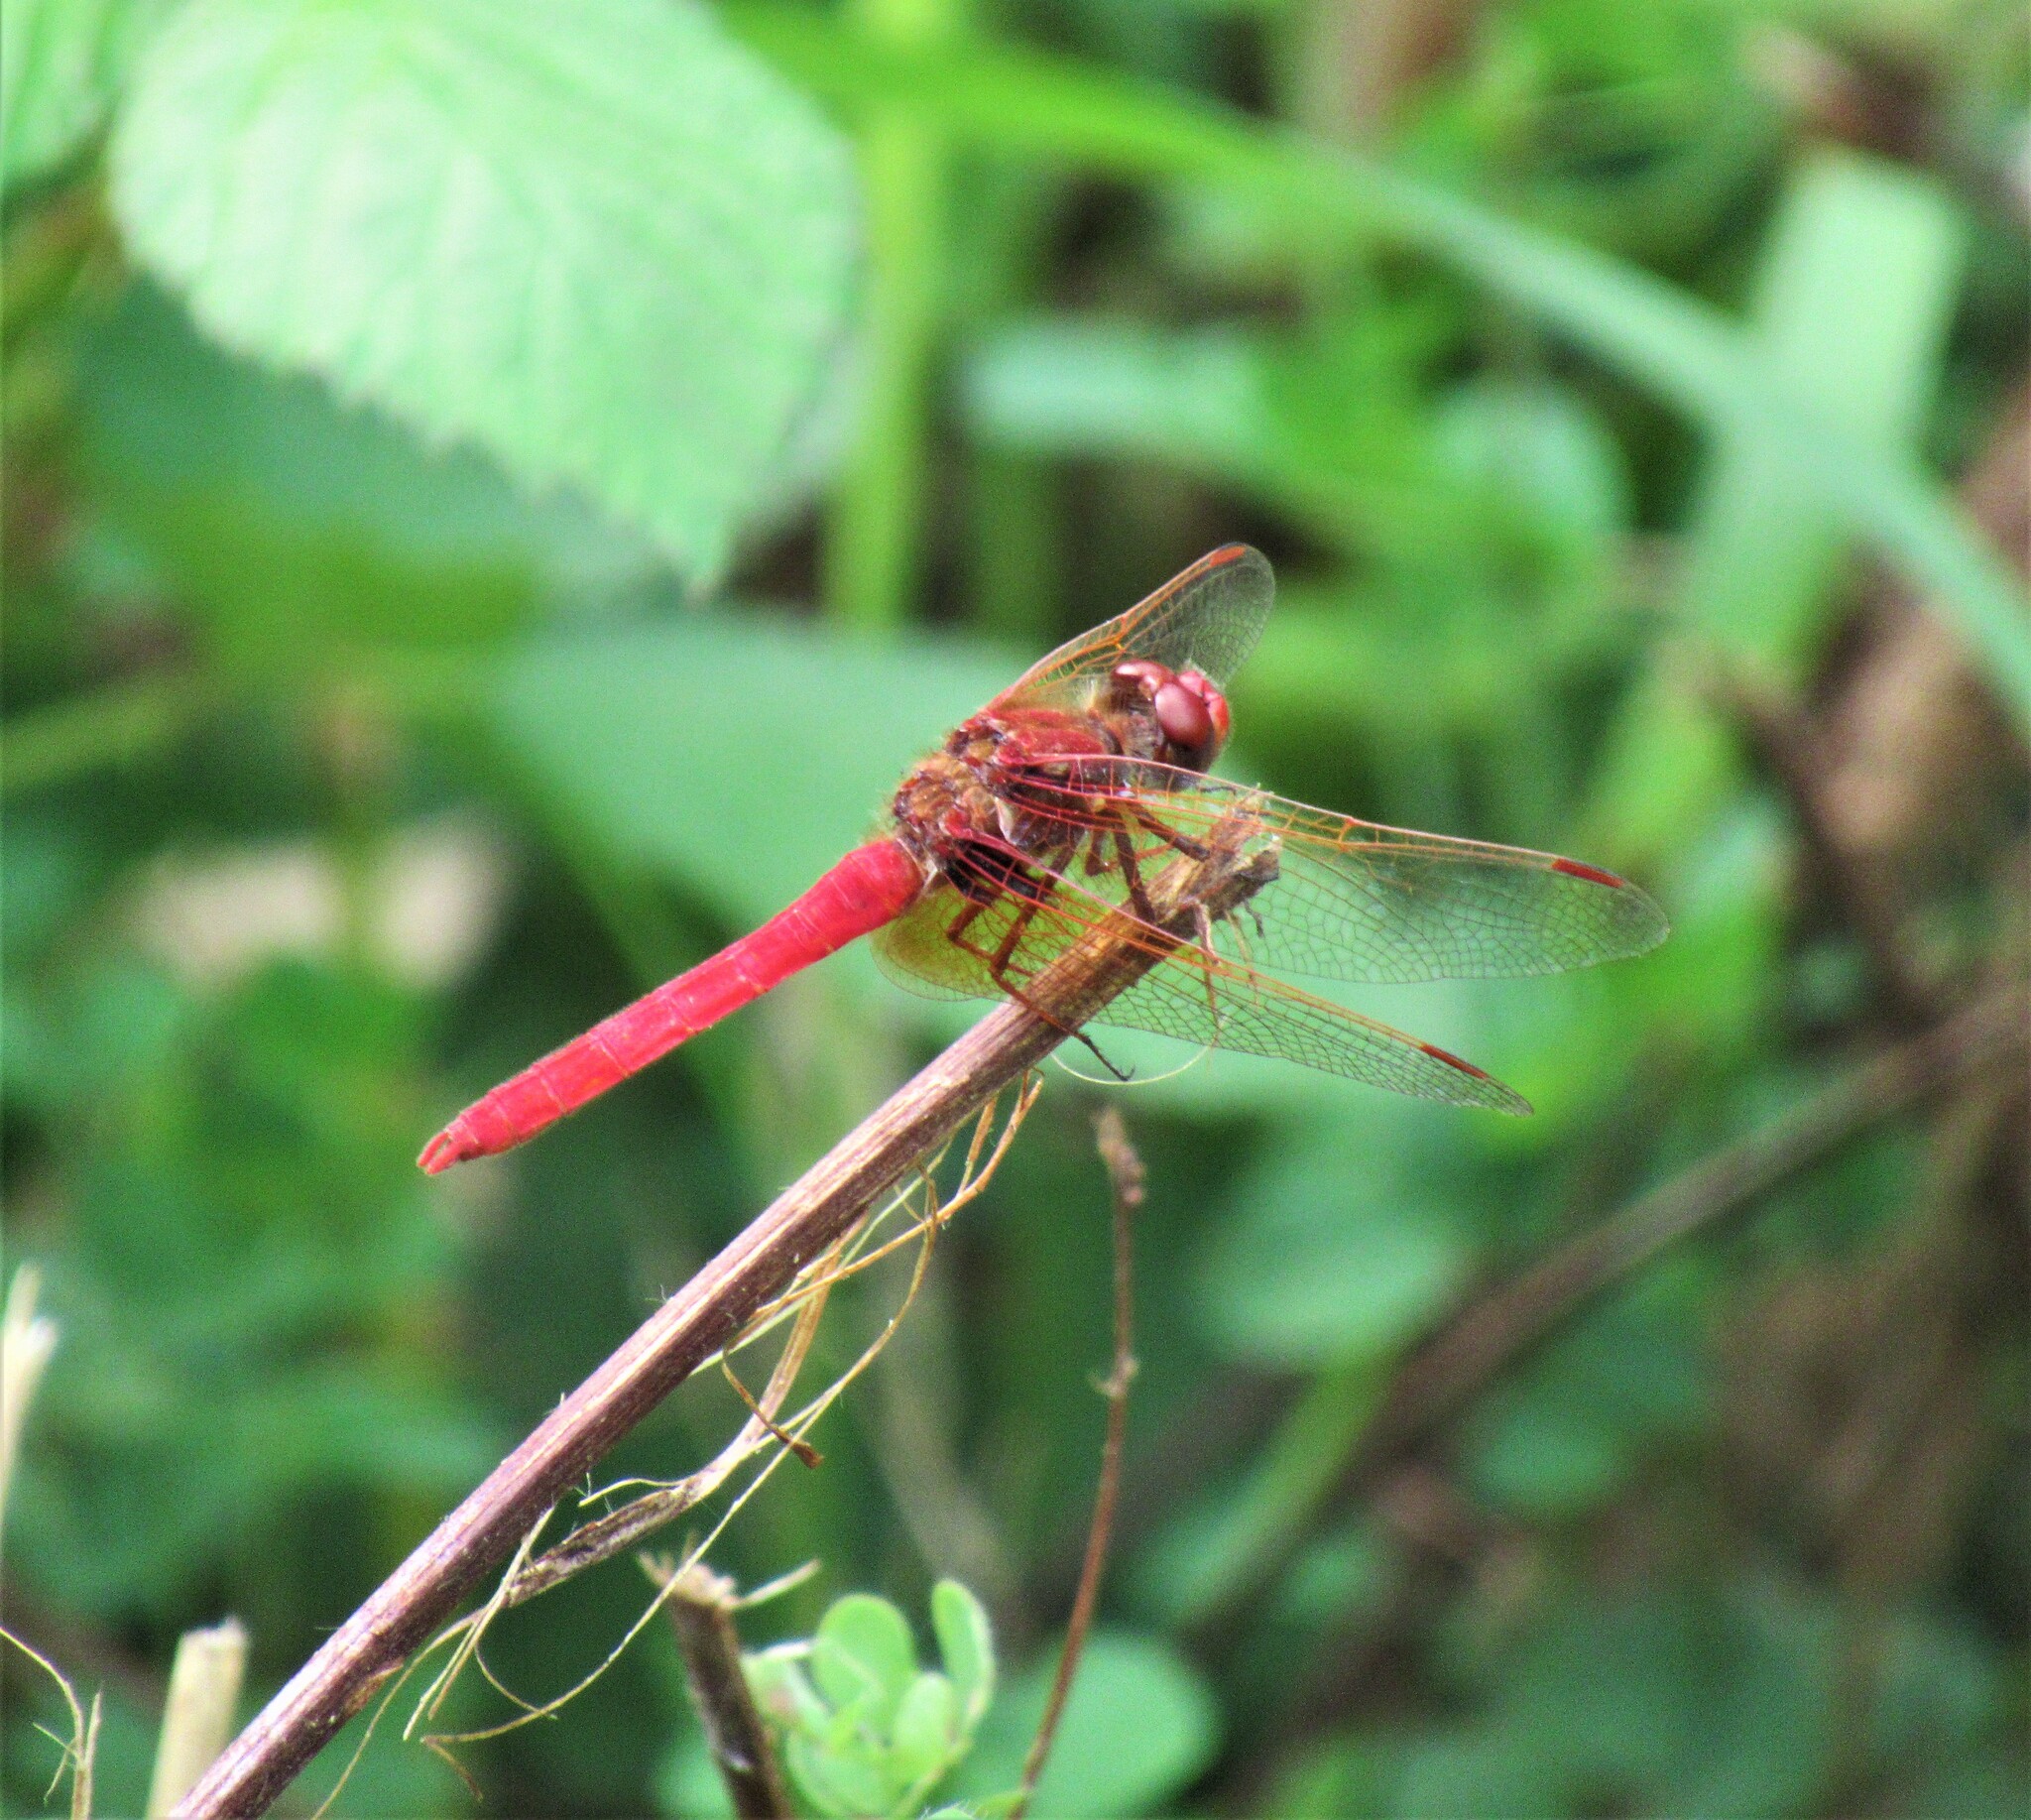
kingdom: Animalia
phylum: Arthropoda
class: Insecta
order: Odonata
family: Libellulidae
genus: Sympetrum
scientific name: Sympetrum illotum
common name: Cardinal meadowhawk
